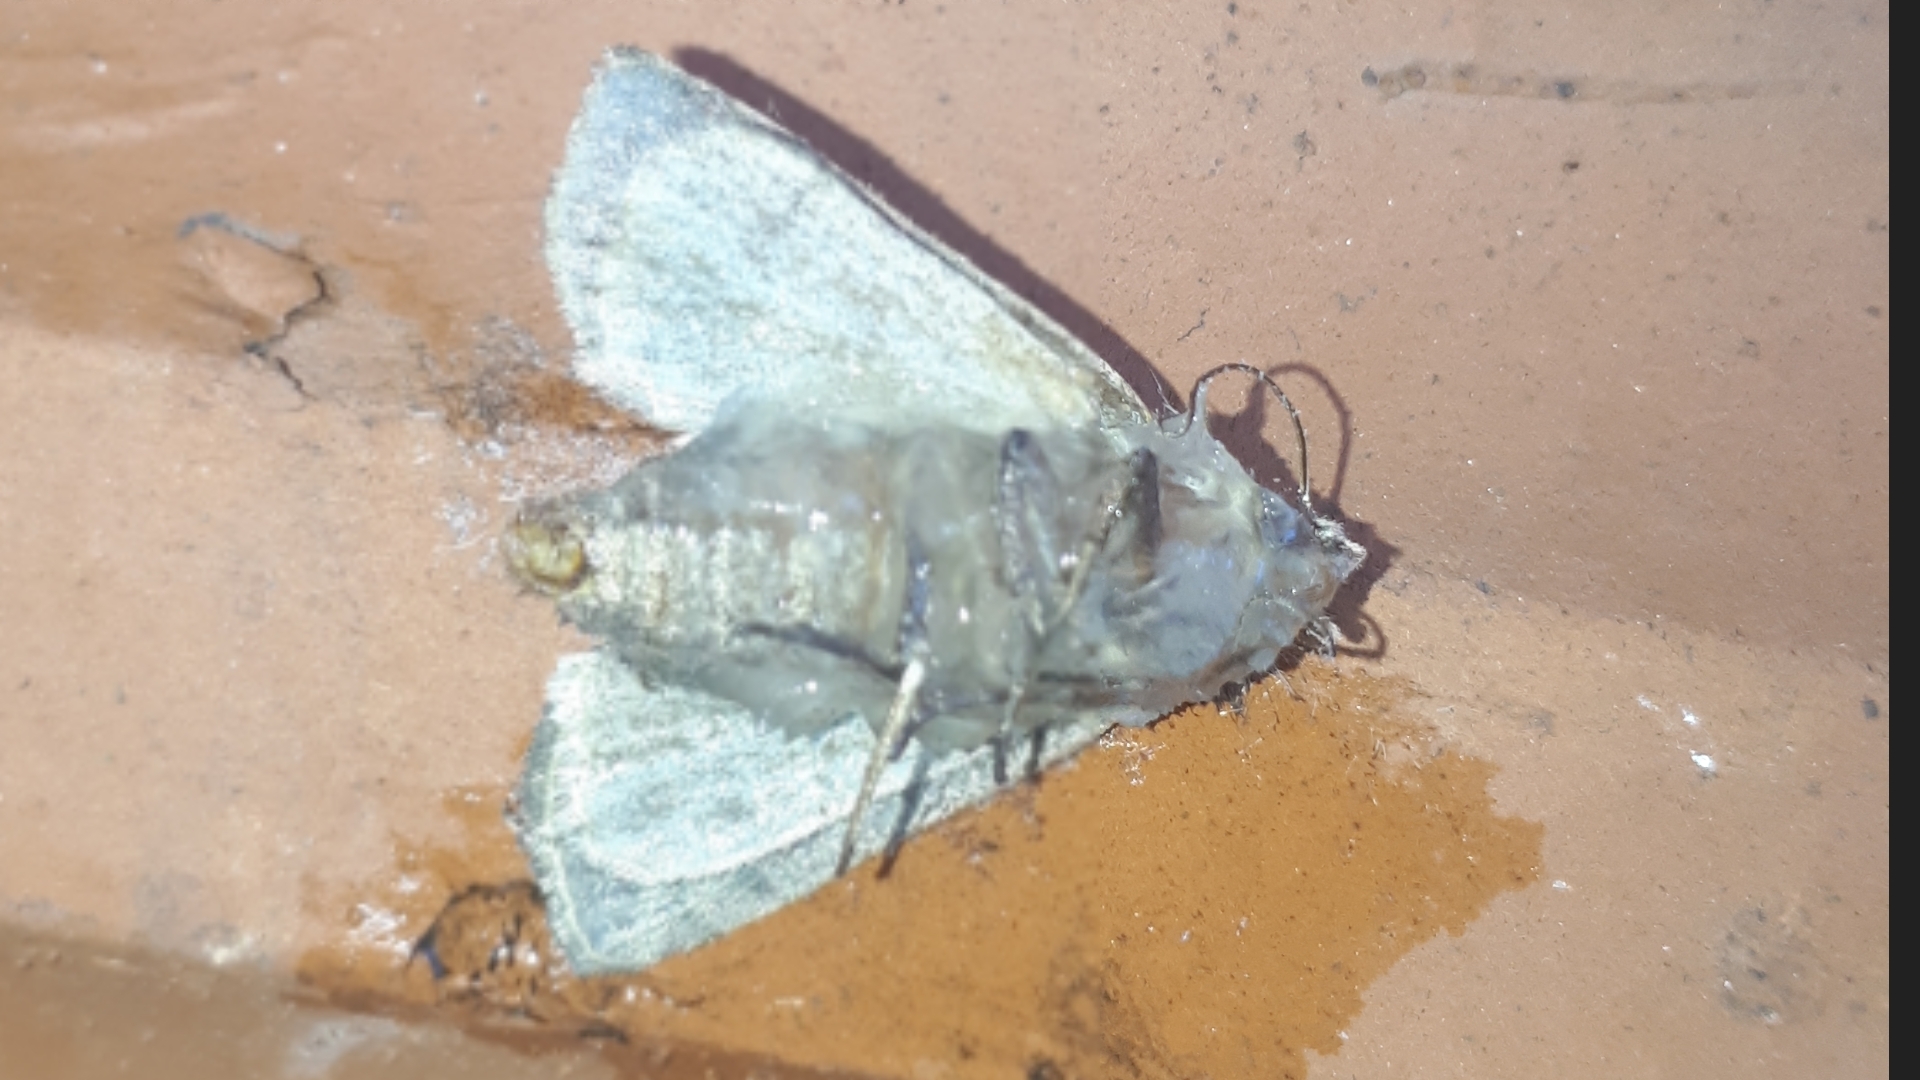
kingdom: Animalia
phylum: Arthropoda
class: Insecta
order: Lepidoptera
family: Noctuidae
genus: Xestia
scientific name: Xestia xanthographa
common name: Square-spot rustic
